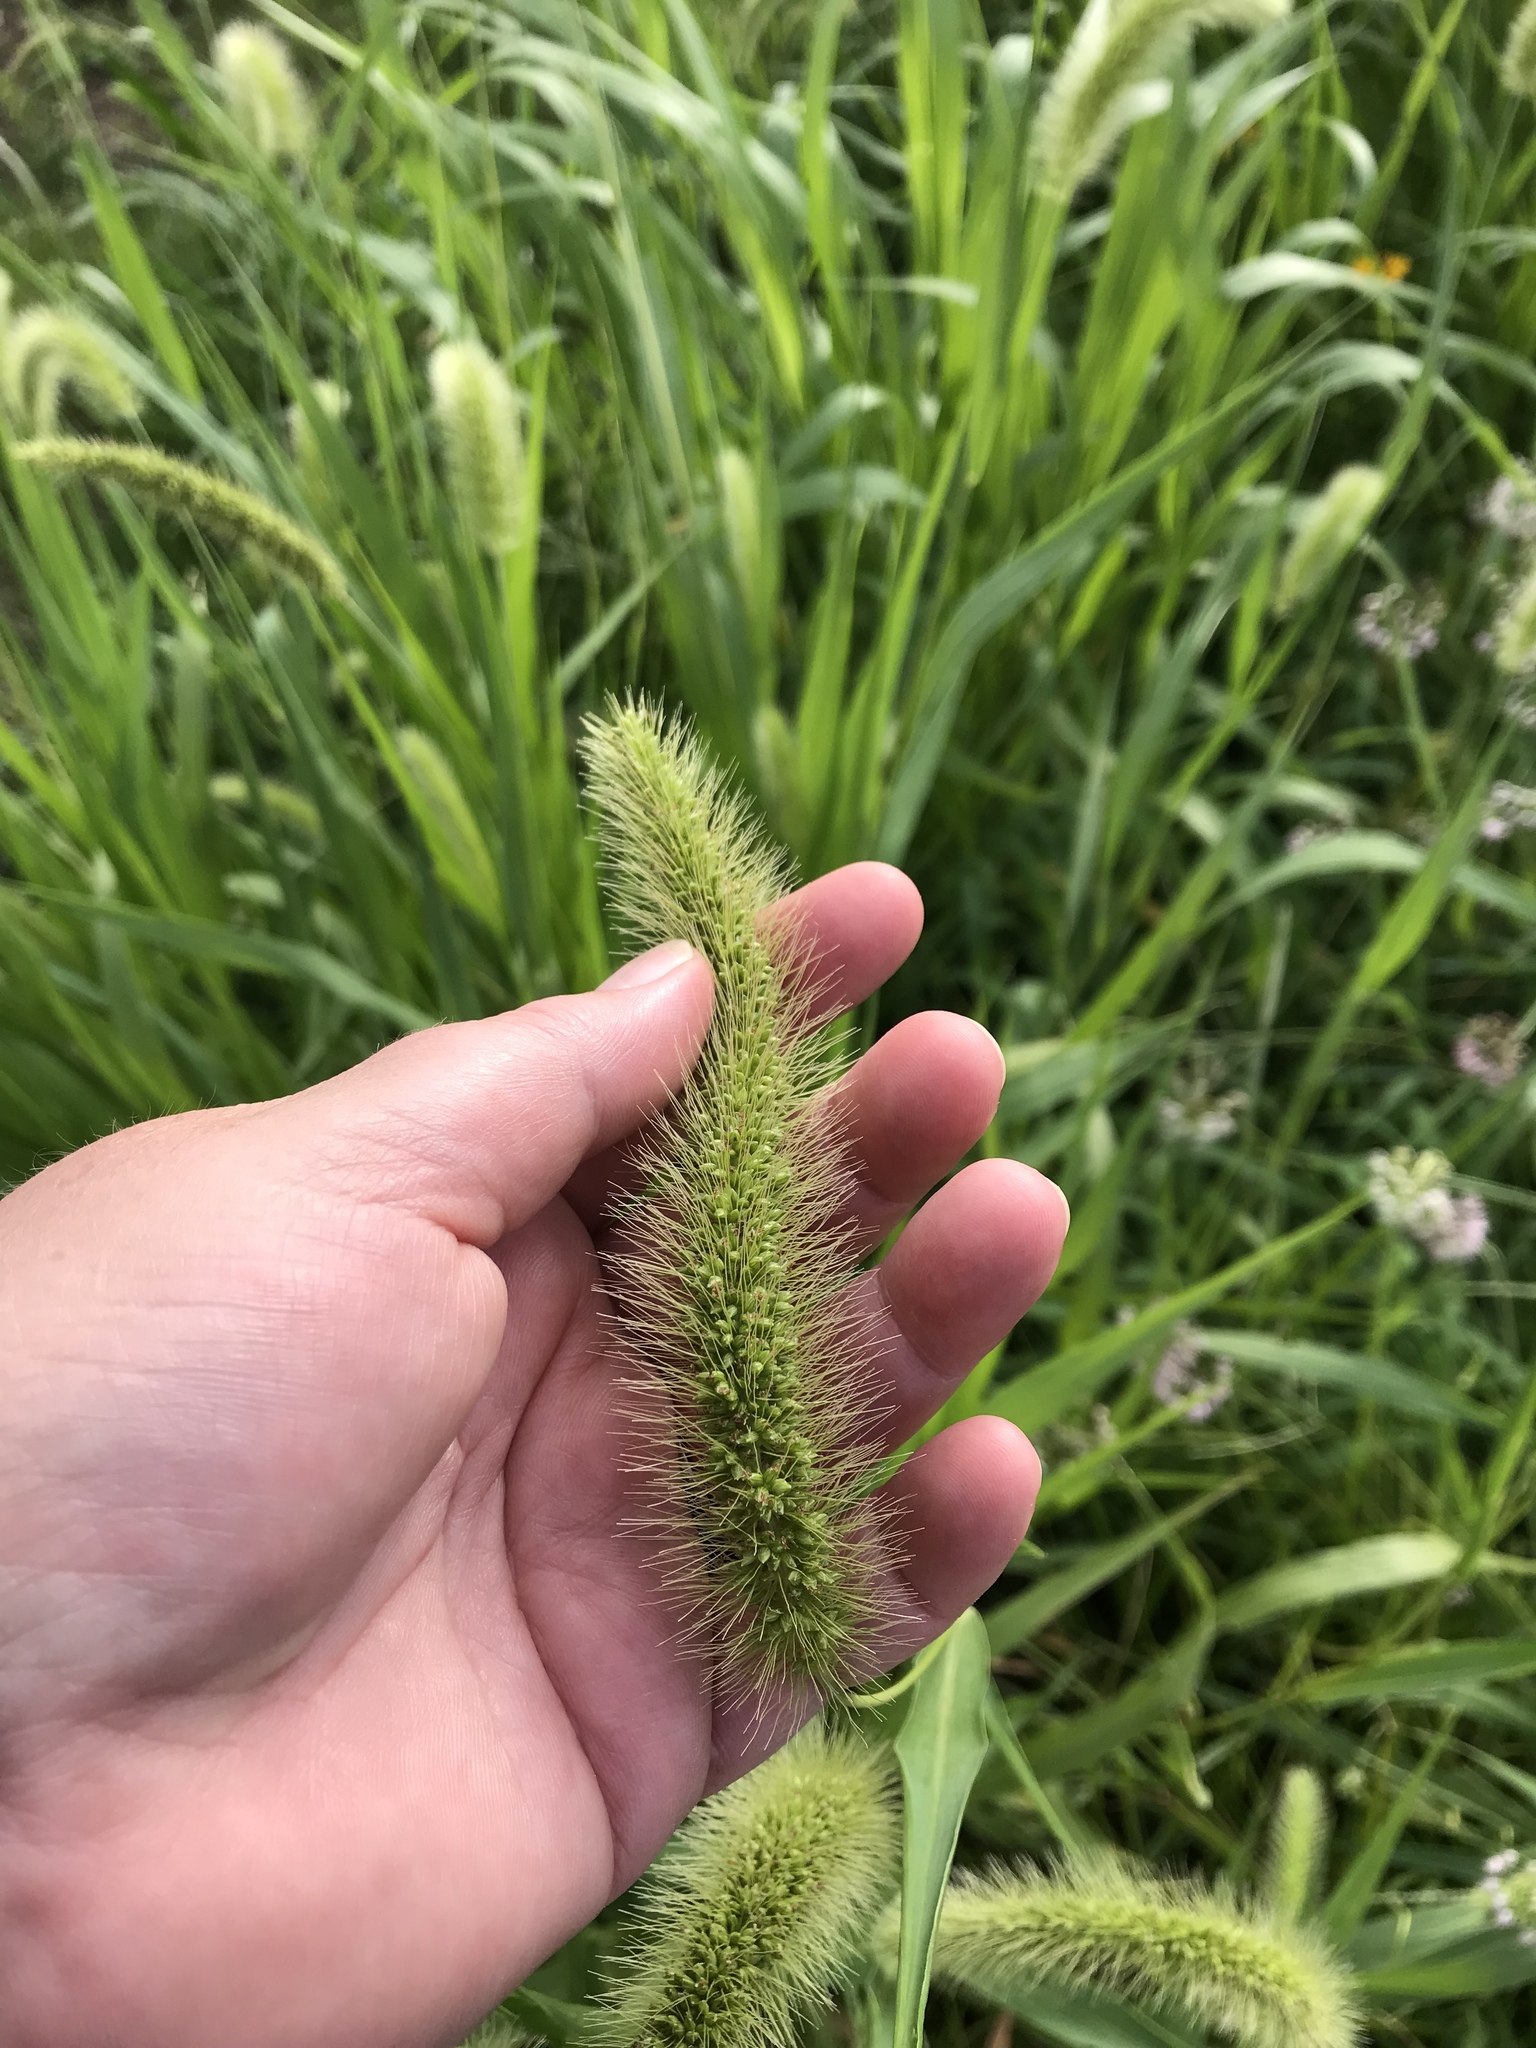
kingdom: Plantae
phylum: Tracheophyta
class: Liliopsida
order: Poales
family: Poaceae
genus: Setaria
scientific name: Setaria faberi
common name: Nodding bristle-grass
